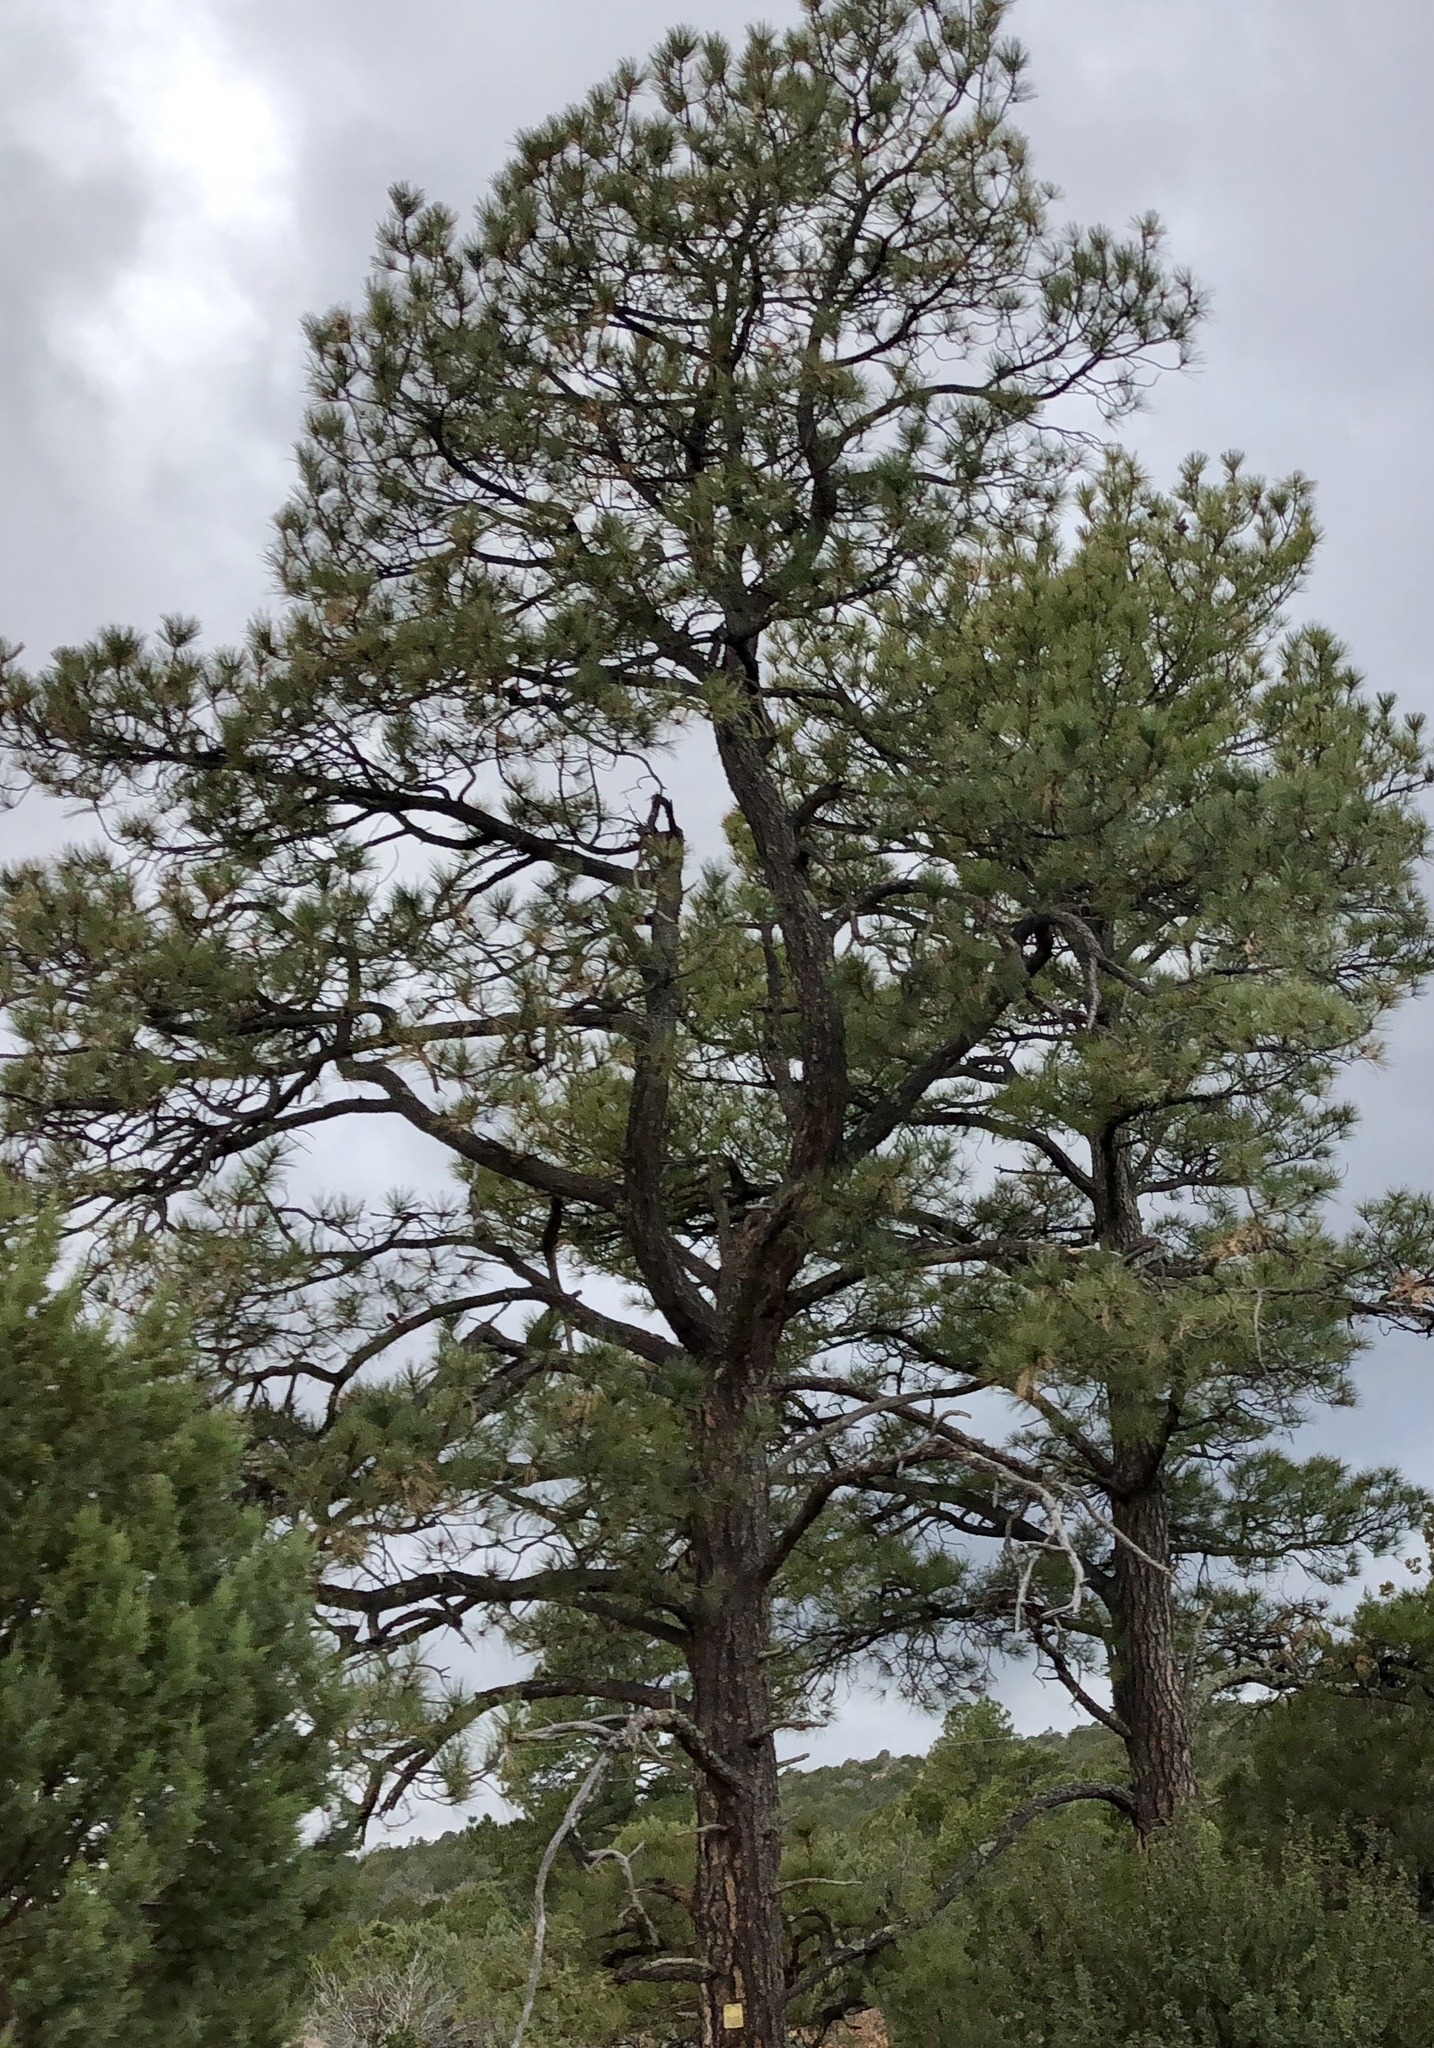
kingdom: Plantae
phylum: Tracheophyta
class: Pinopsida
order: Pinales
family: Pinaceae
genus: Pinus
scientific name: Pinus ponderosa
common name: Western yellow-pine
